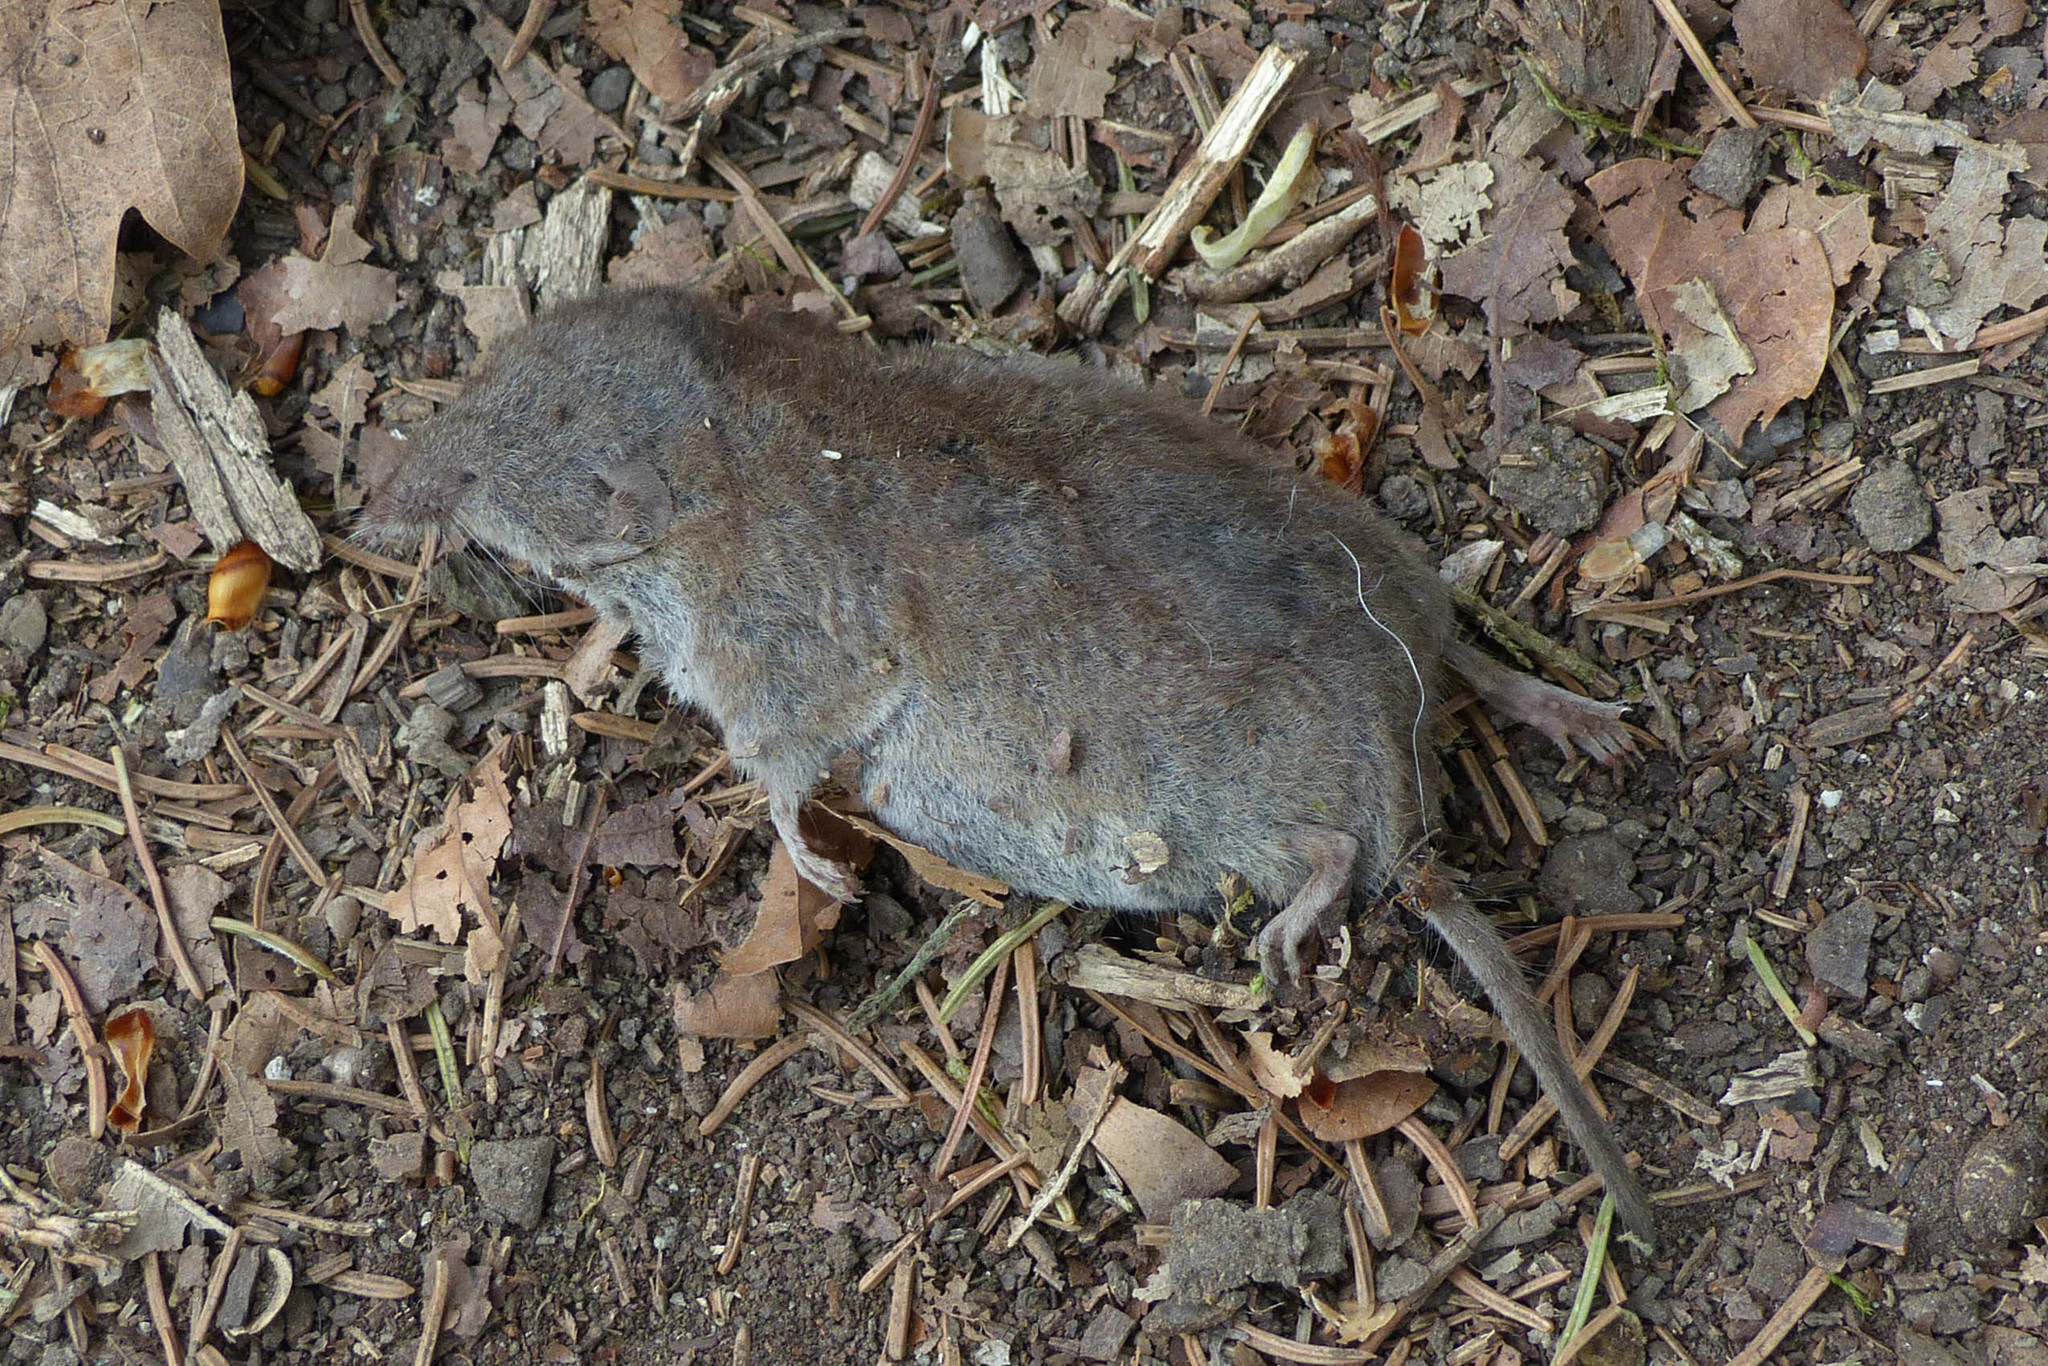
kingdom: Animalia
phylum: Chordata
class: Mammalia
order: Soricomorpha
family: Soricidae
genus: Crocidura
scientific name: Crocidura russula
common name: Greater white-toothed shrew
